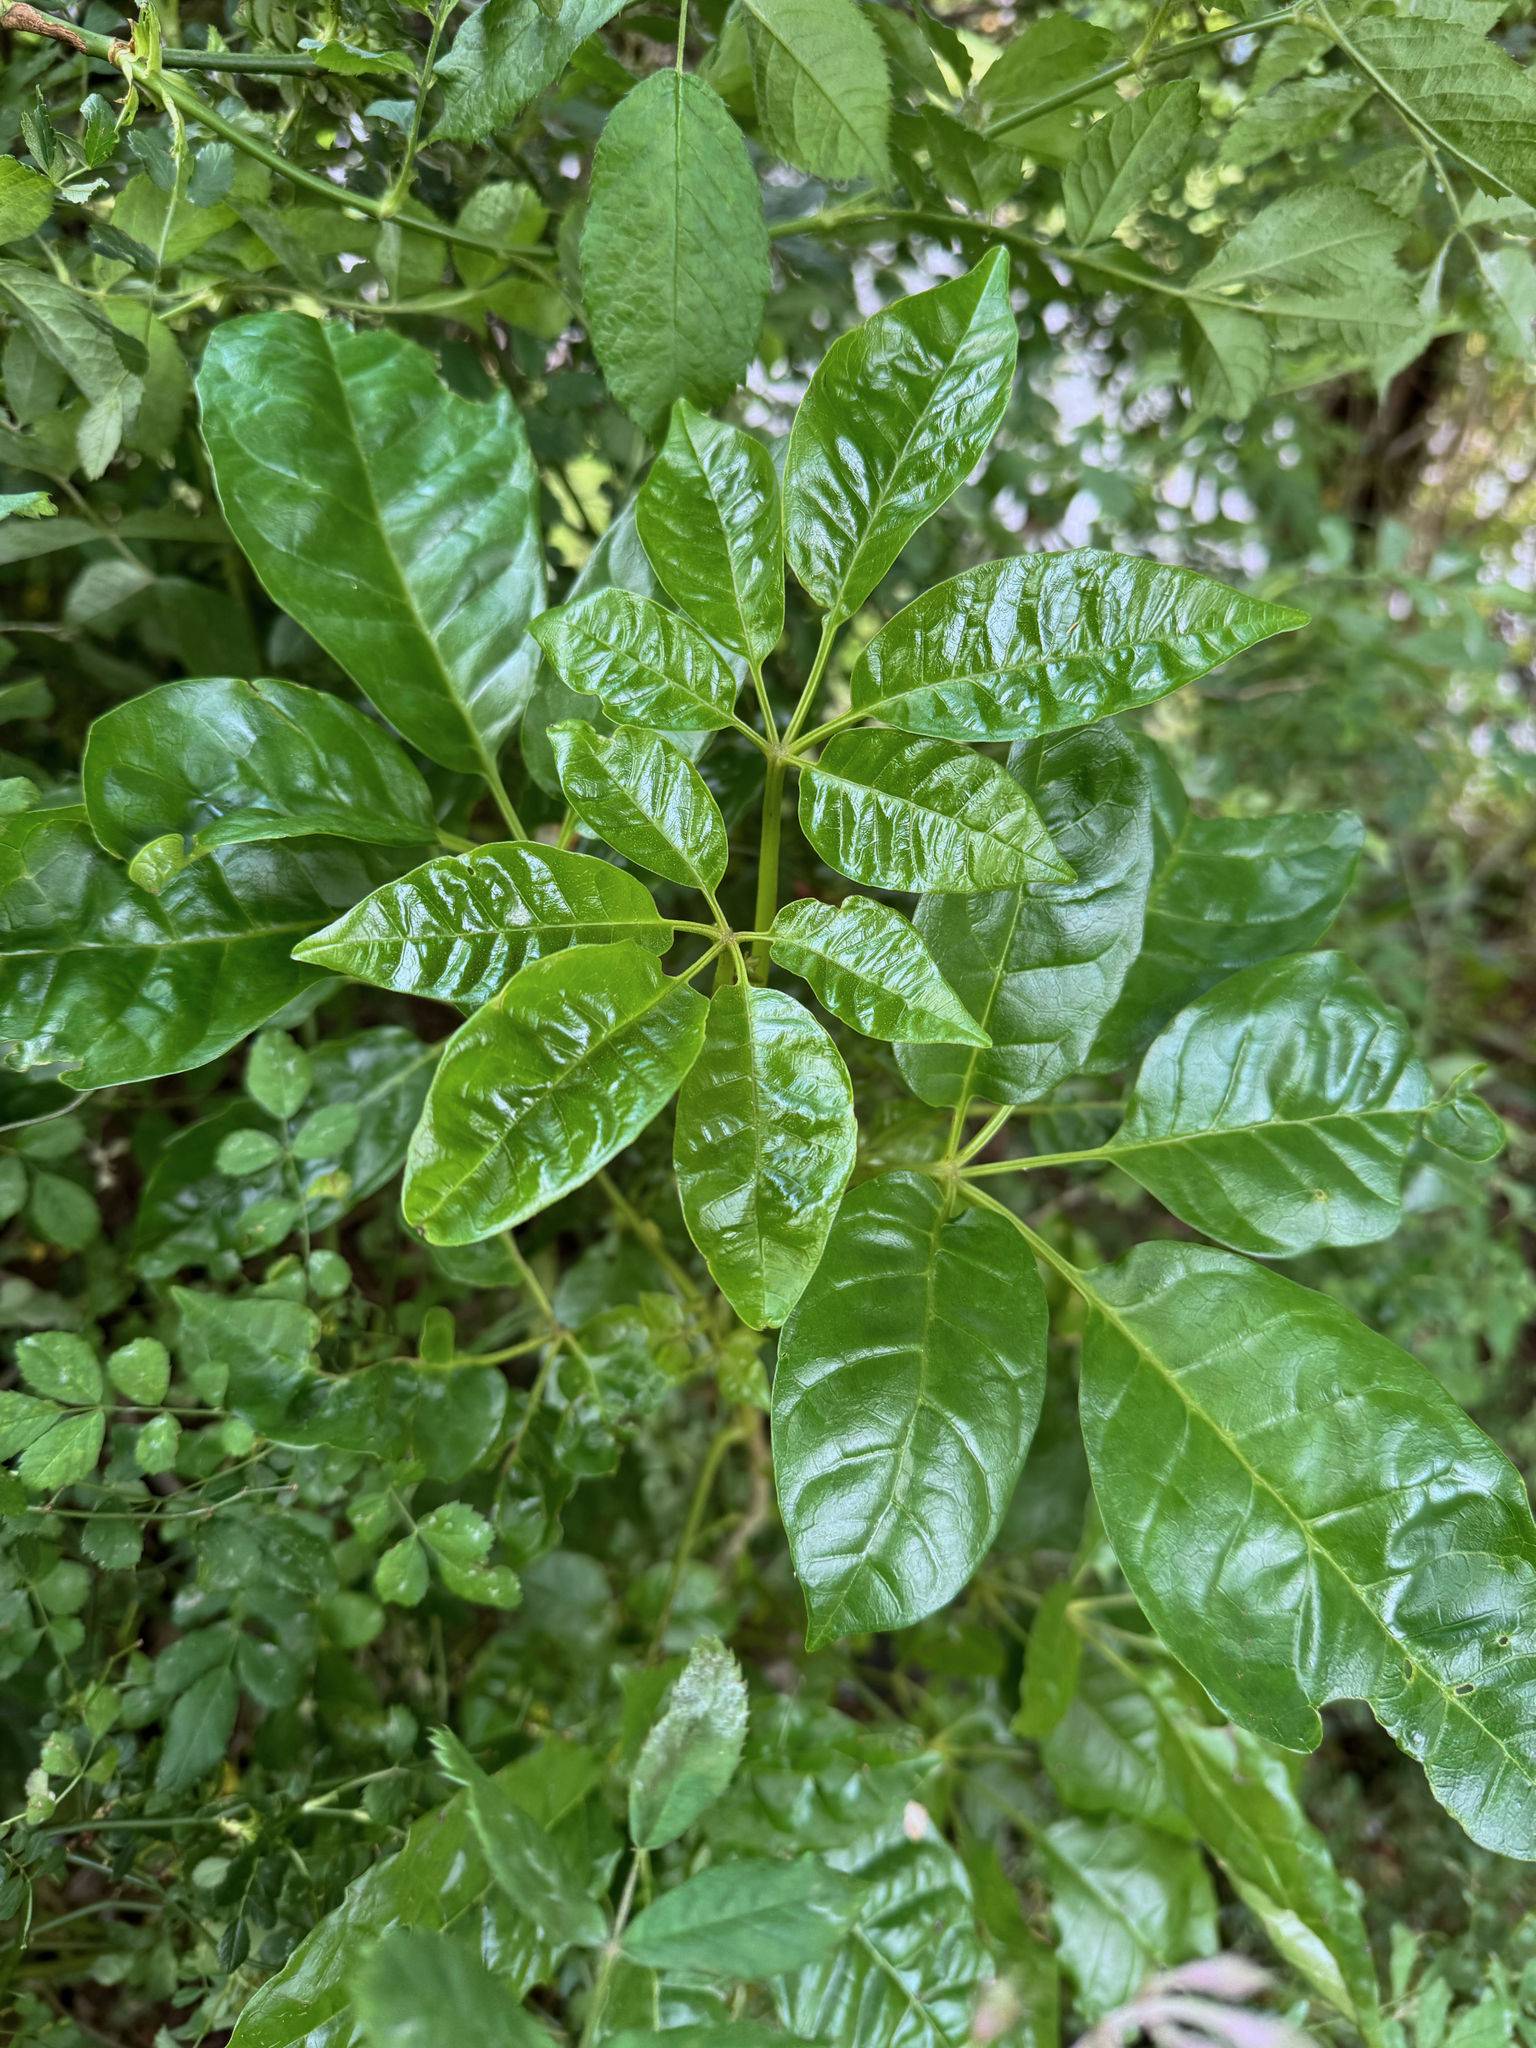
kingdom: Plantae
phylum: Tracheophyta
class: Magnoliopsida
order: Lamiales
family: Lamiaceae
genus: Vitex
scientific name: Vitex lucens
